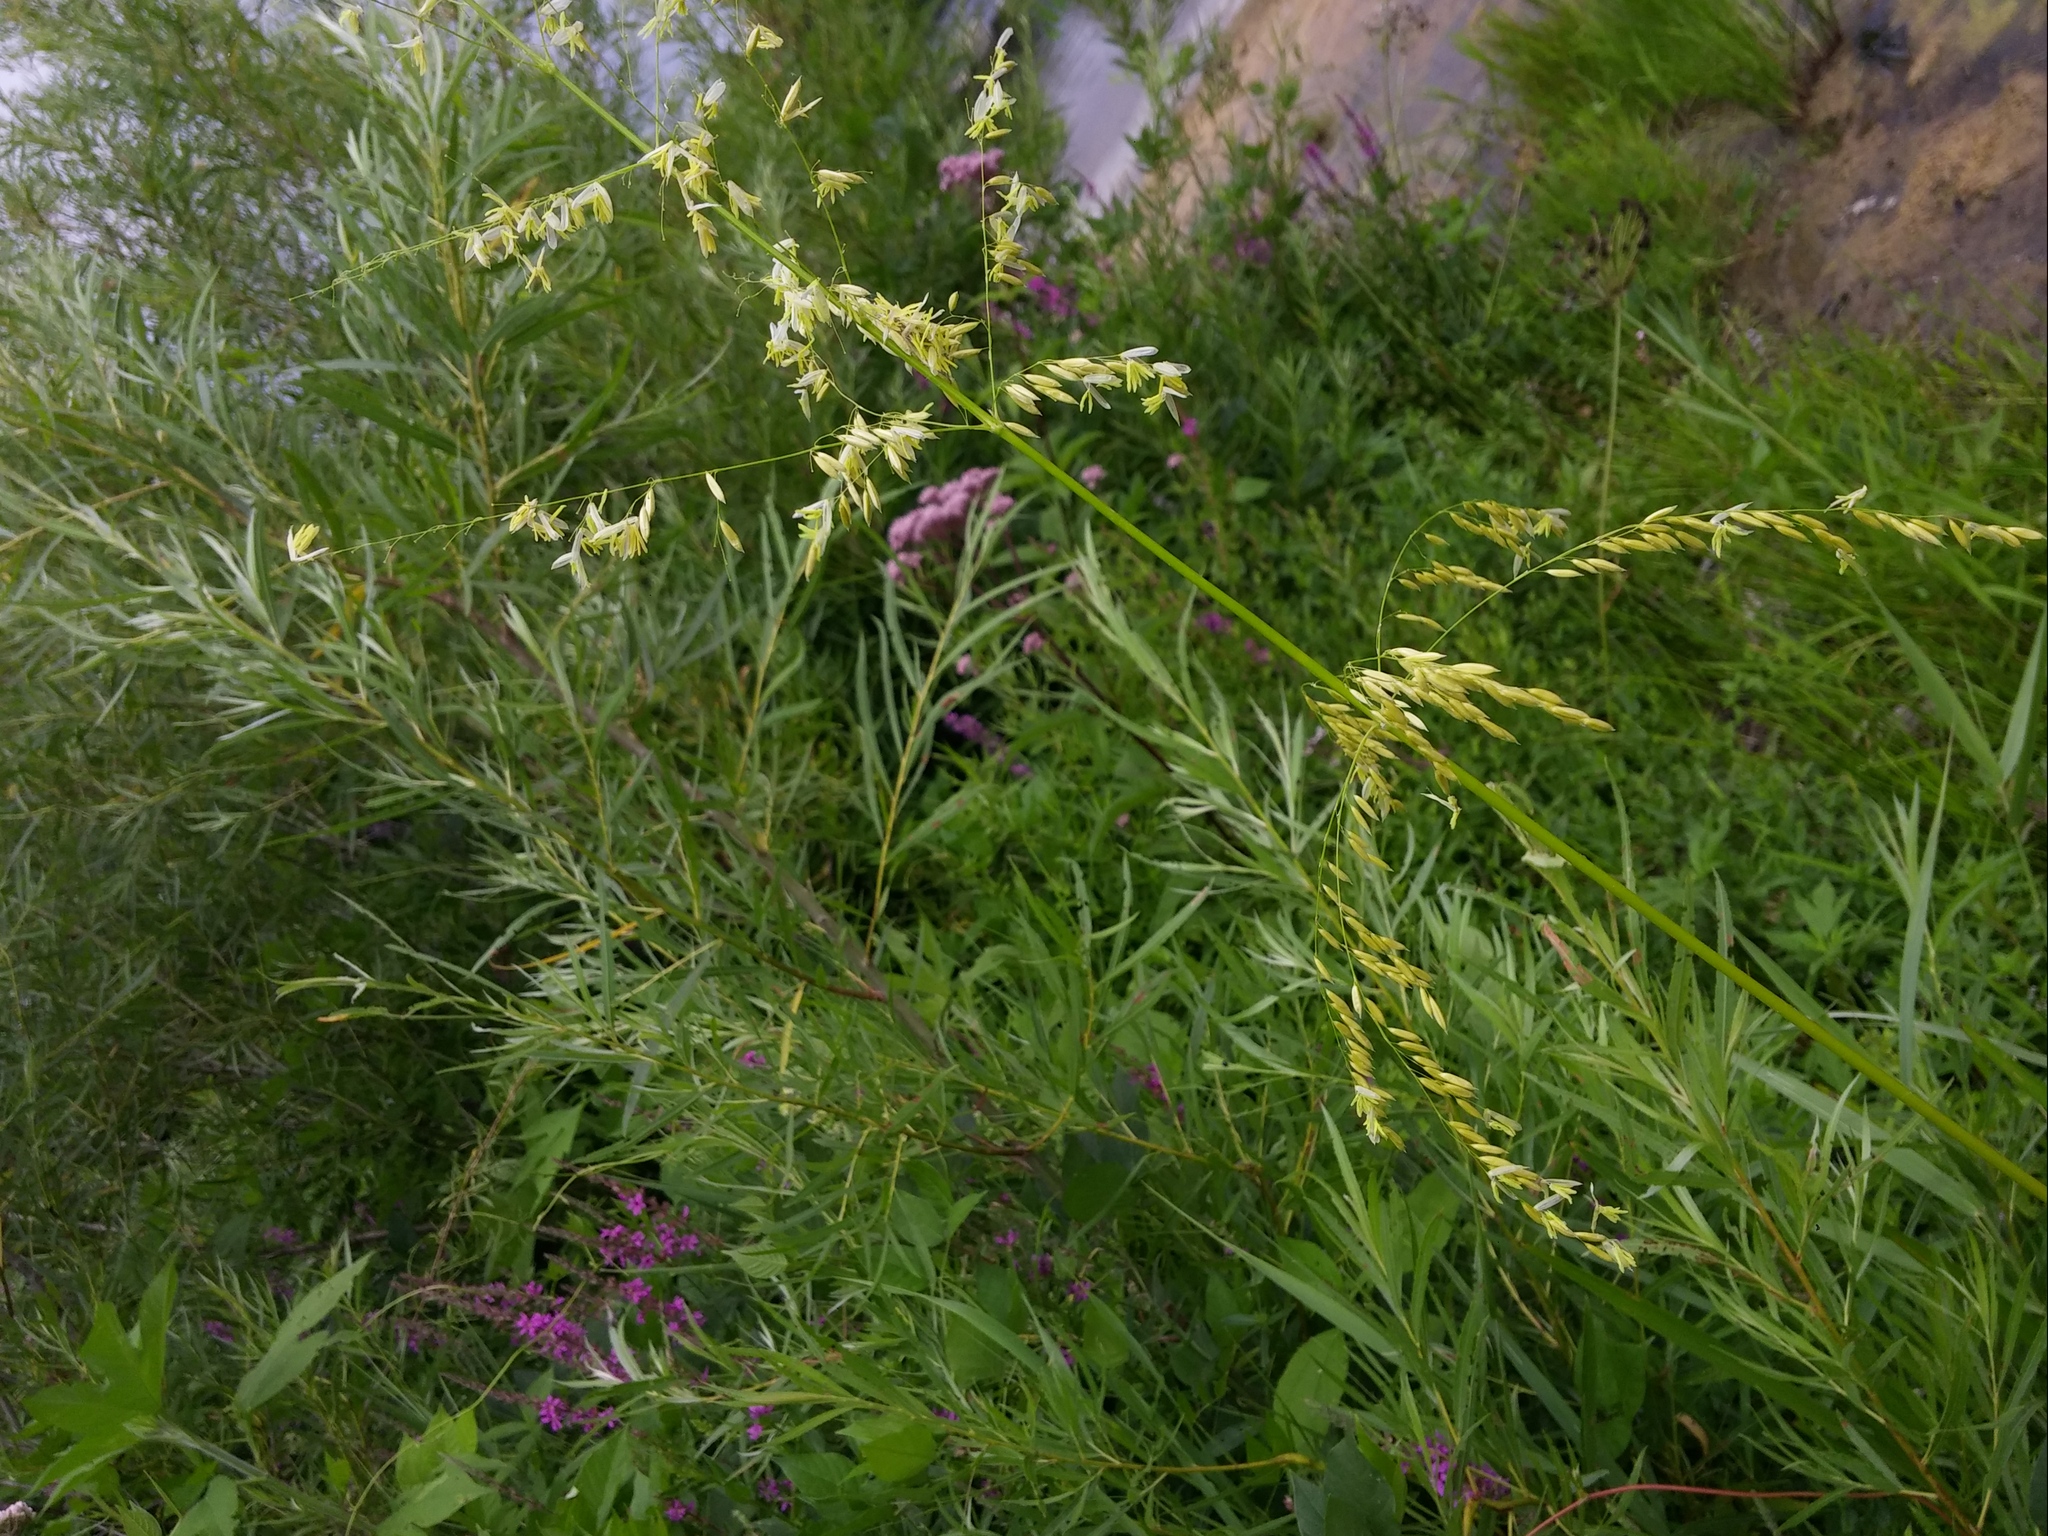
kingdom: Plantae
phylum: Tracheophyta
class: Liliopsida
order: Poales
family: Poaceae
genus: Zizania
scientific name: Zizania palustris
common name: Northern wild rice
